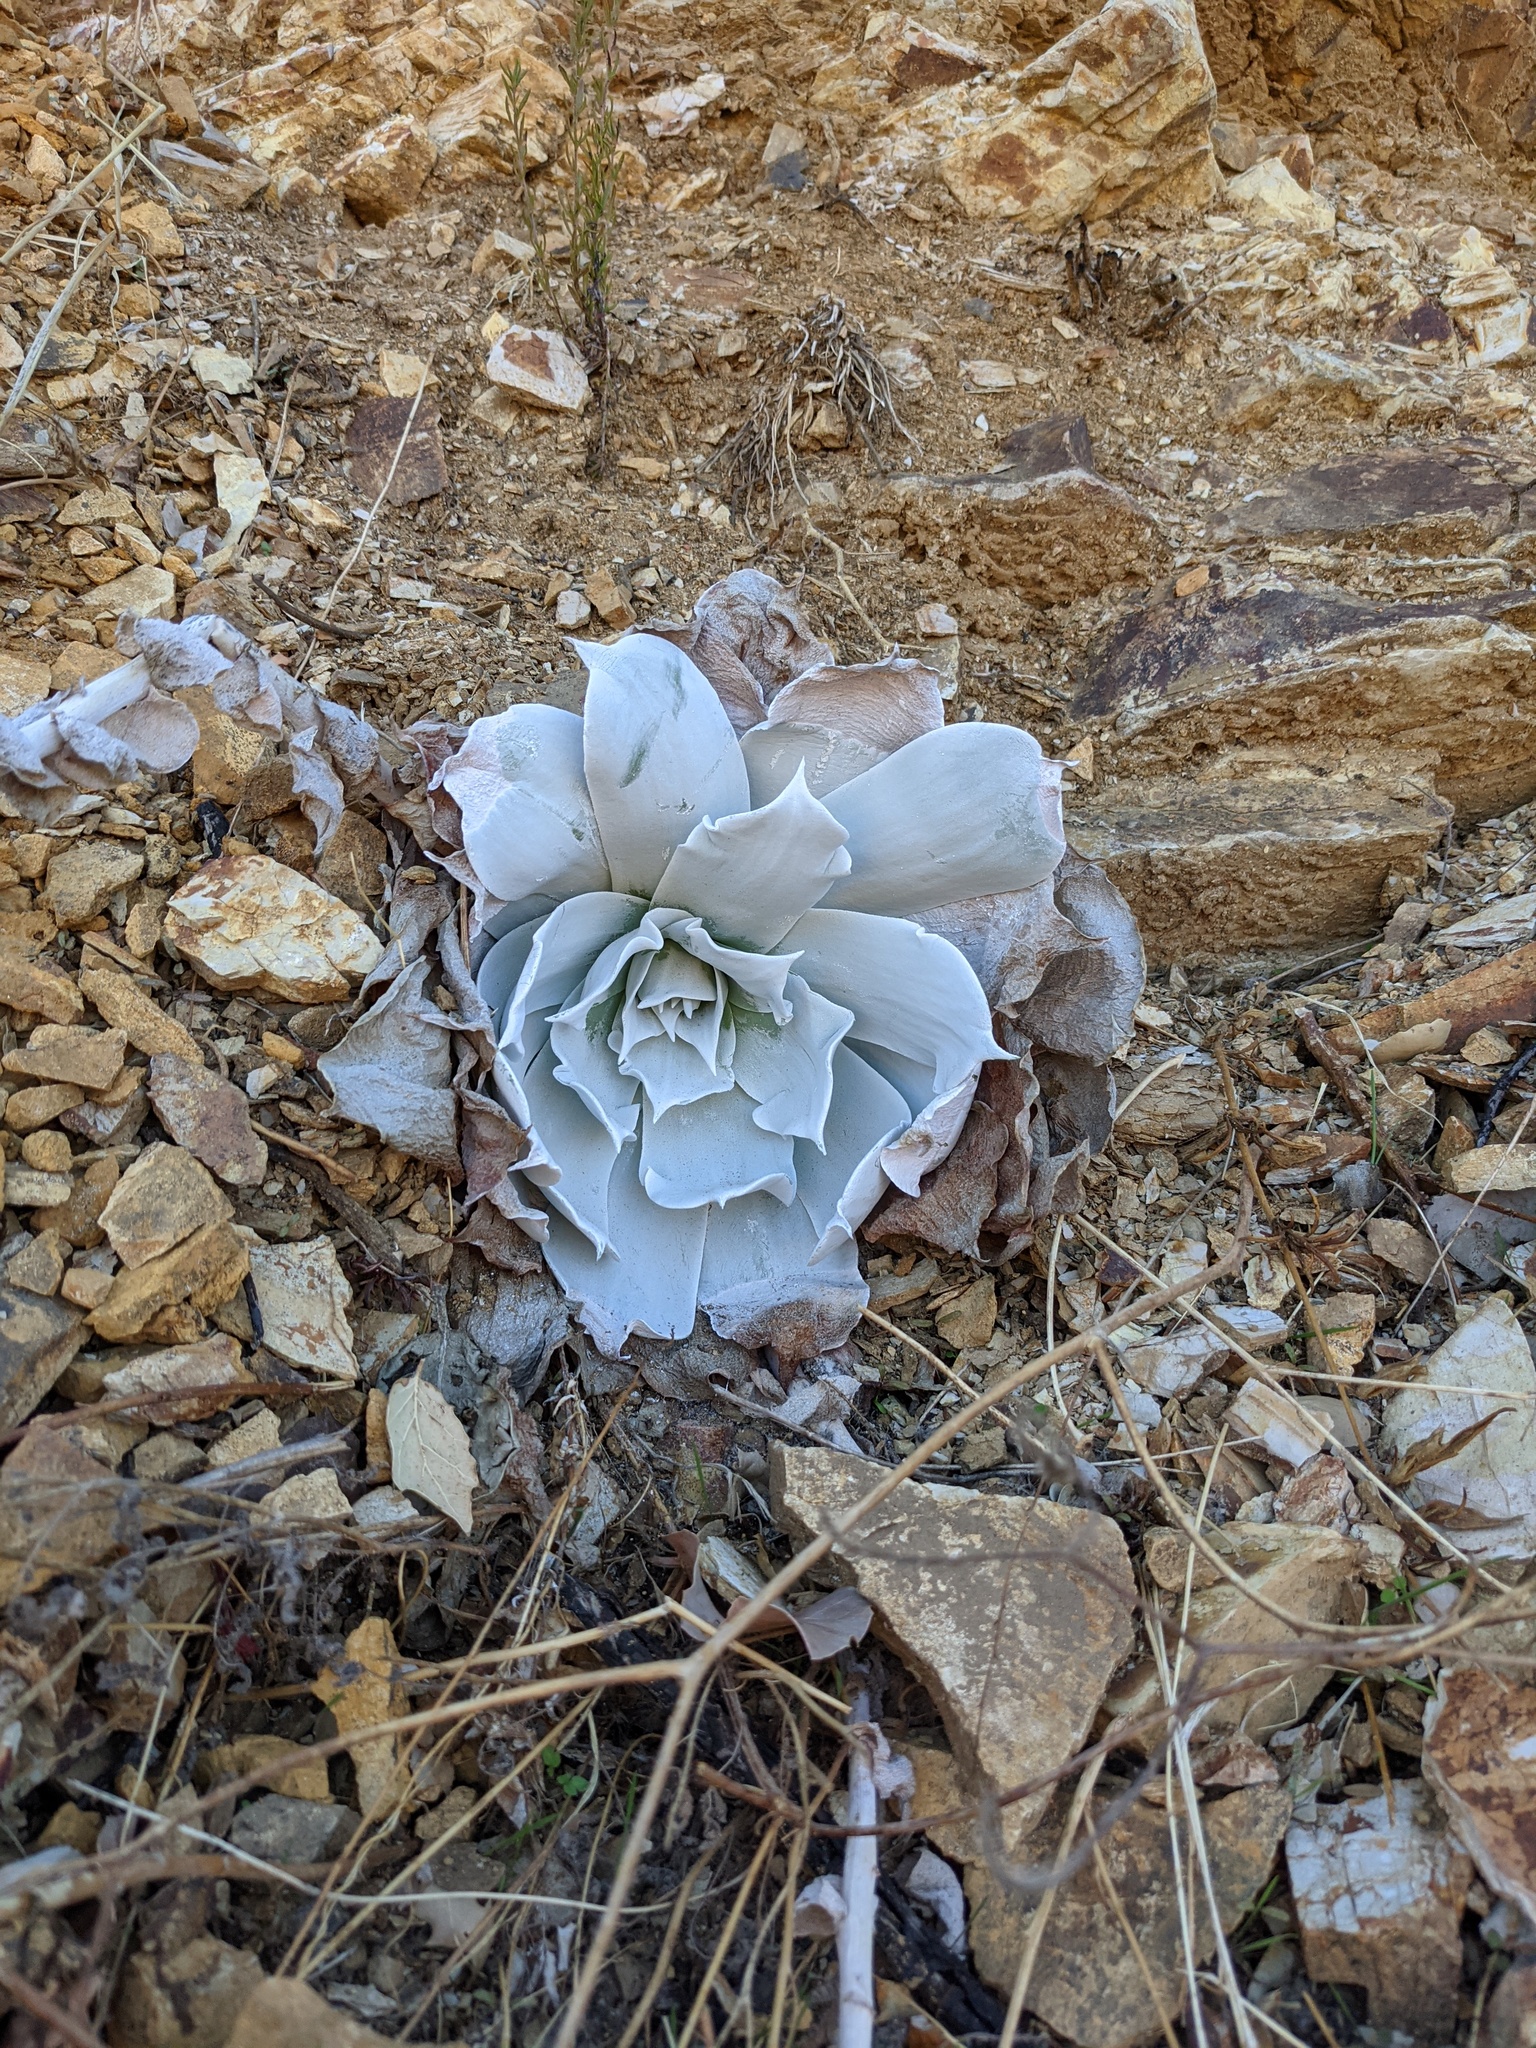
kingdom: Plantae
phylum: Tracheophyta
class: Magnoliopsida
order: Saxifragales
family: Crassulaceae
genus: Dudleya
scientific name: Dudleya pulverulenta
